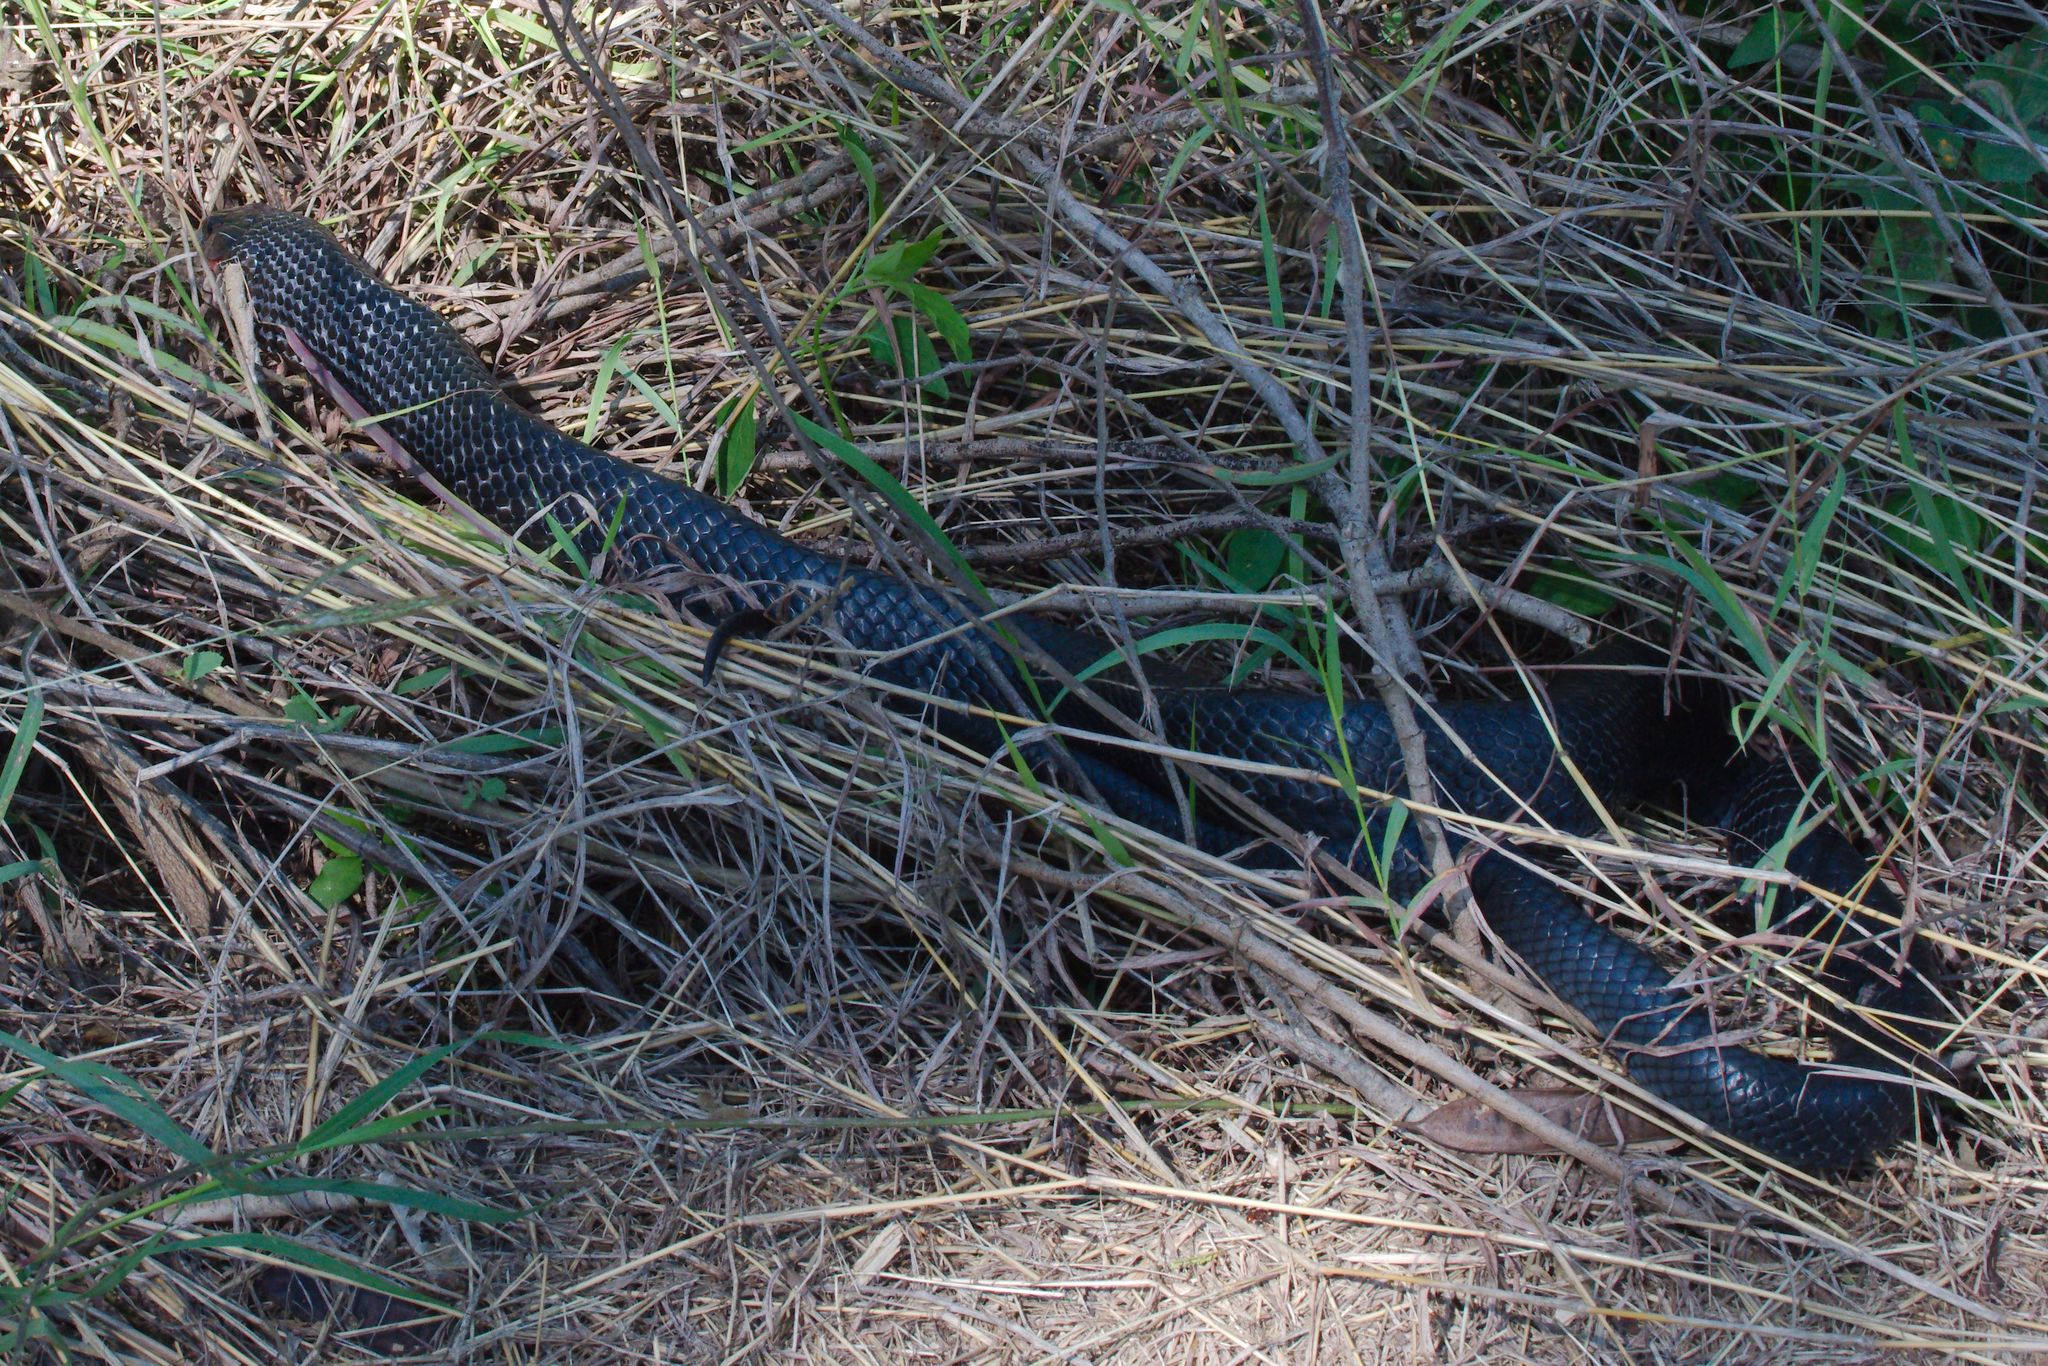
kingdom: Animalia
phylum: Chordata
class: Squamata
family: Colubridae
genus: Drymarchon
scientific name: Drymarchon melanurus
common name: Central american indigo snake
